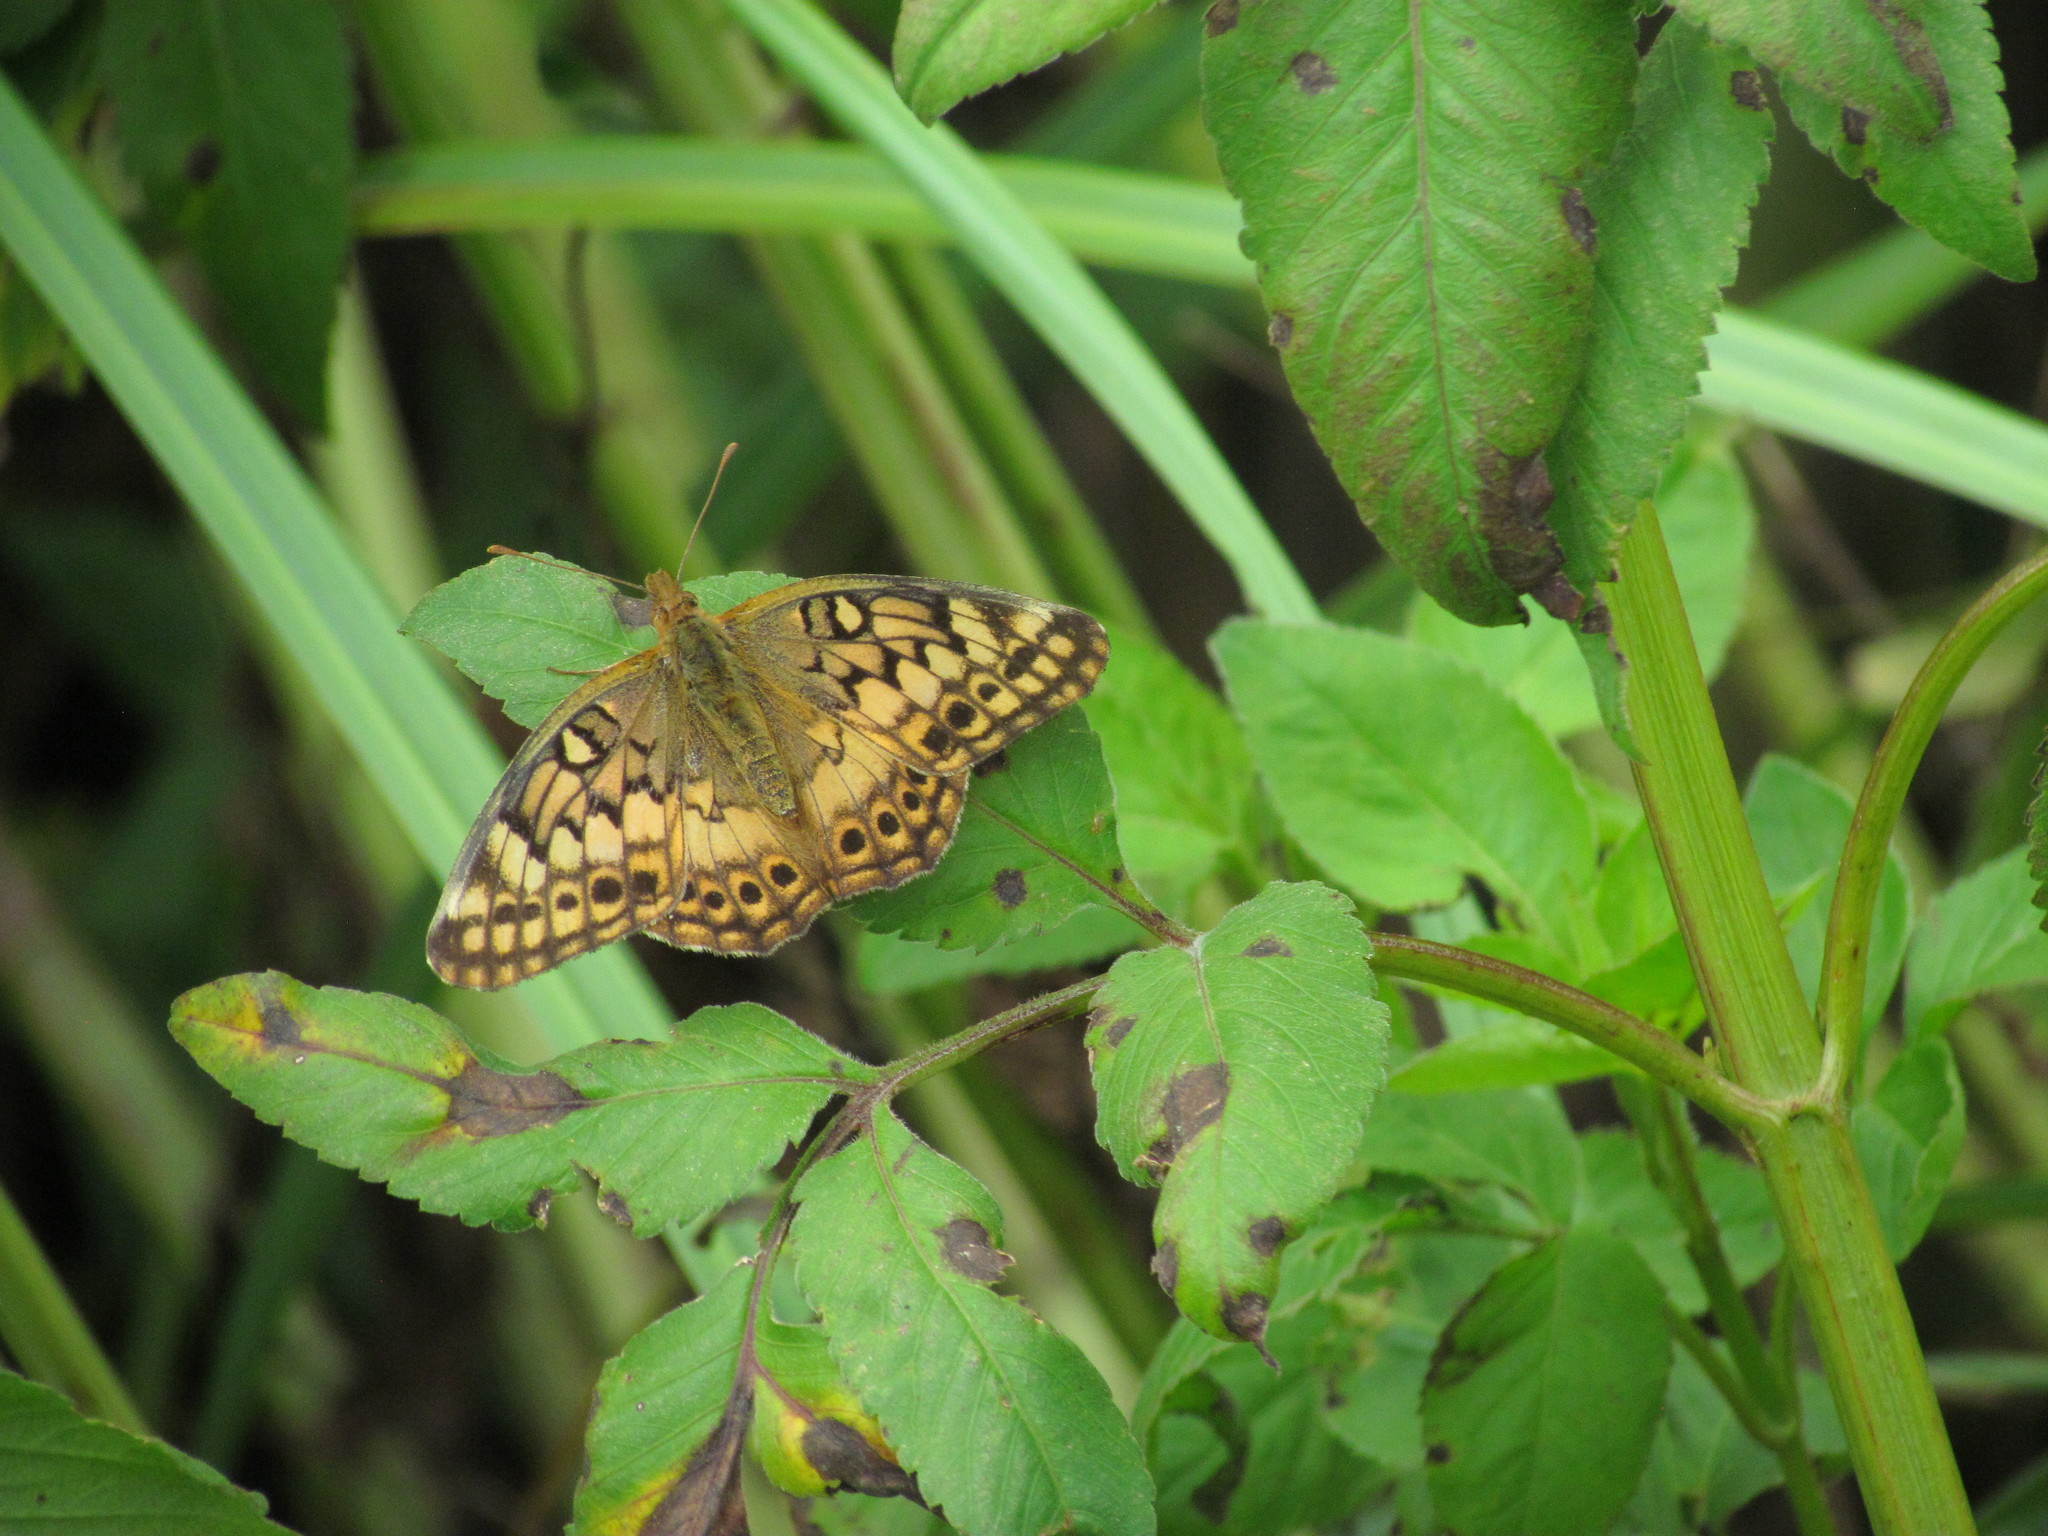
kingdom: Animalia
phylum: Arthropoda
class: Insecta
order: Lepidoptera
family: Nymphalidae
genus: Euptoieta
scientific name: Euptoieta hortensia
